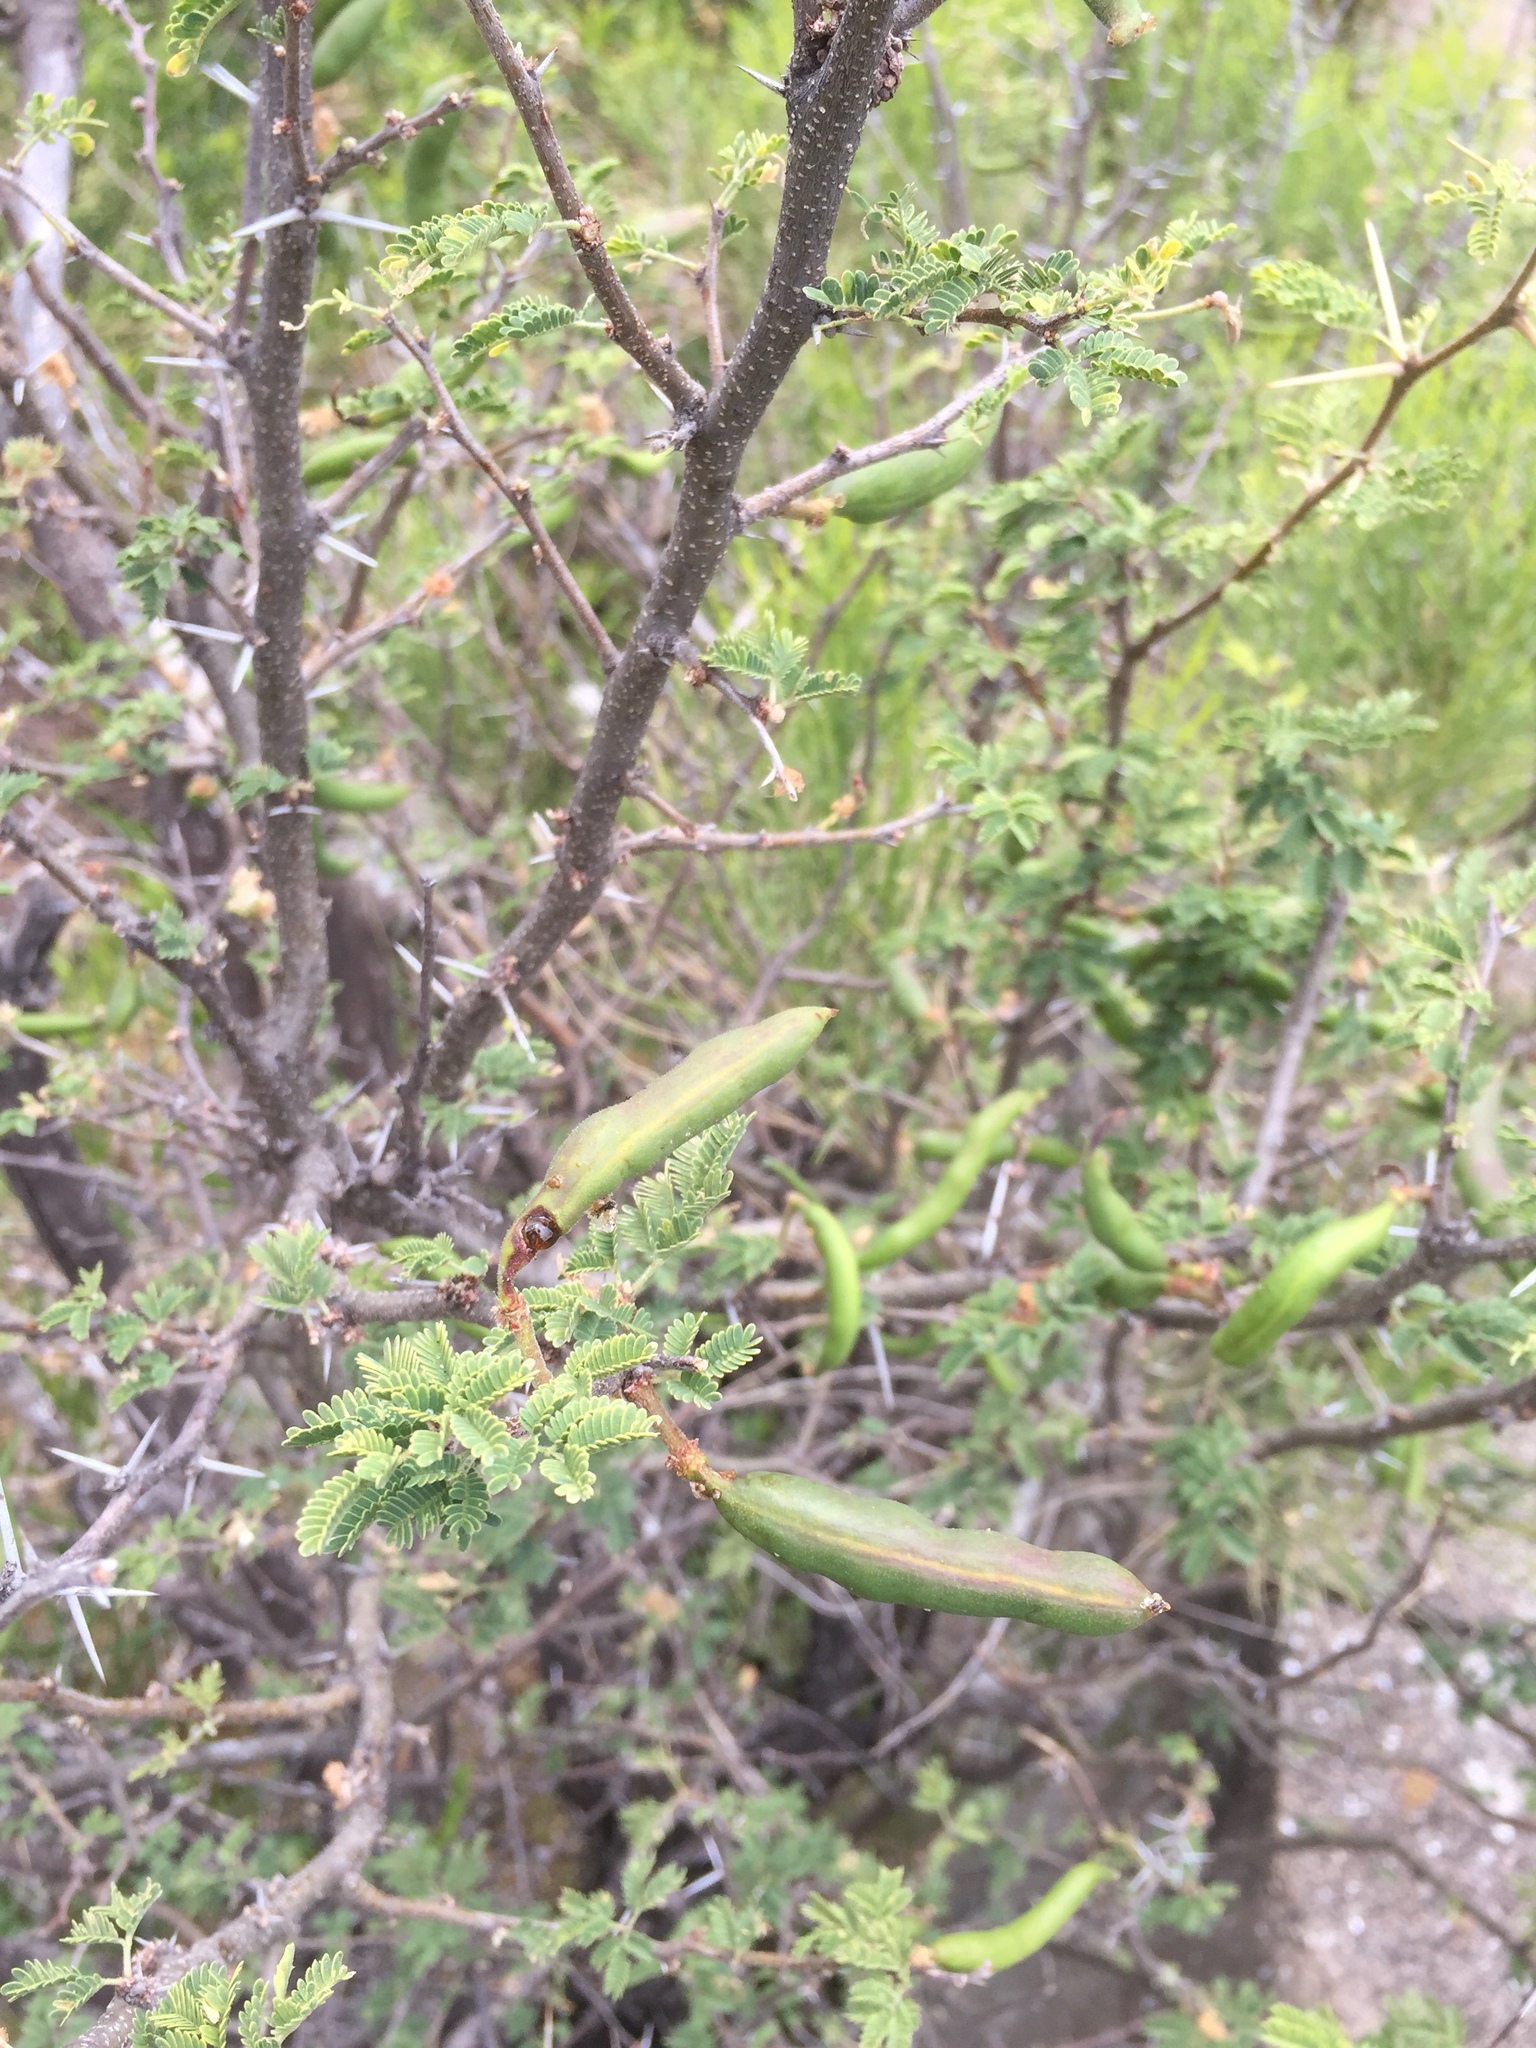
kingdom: Plantae
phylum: Tracheophyta
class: Magnoliopsida
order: Fabales
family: Fabaceae
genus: Vachellia
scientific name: Vachellia farnesiana
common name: Sweet acacia
